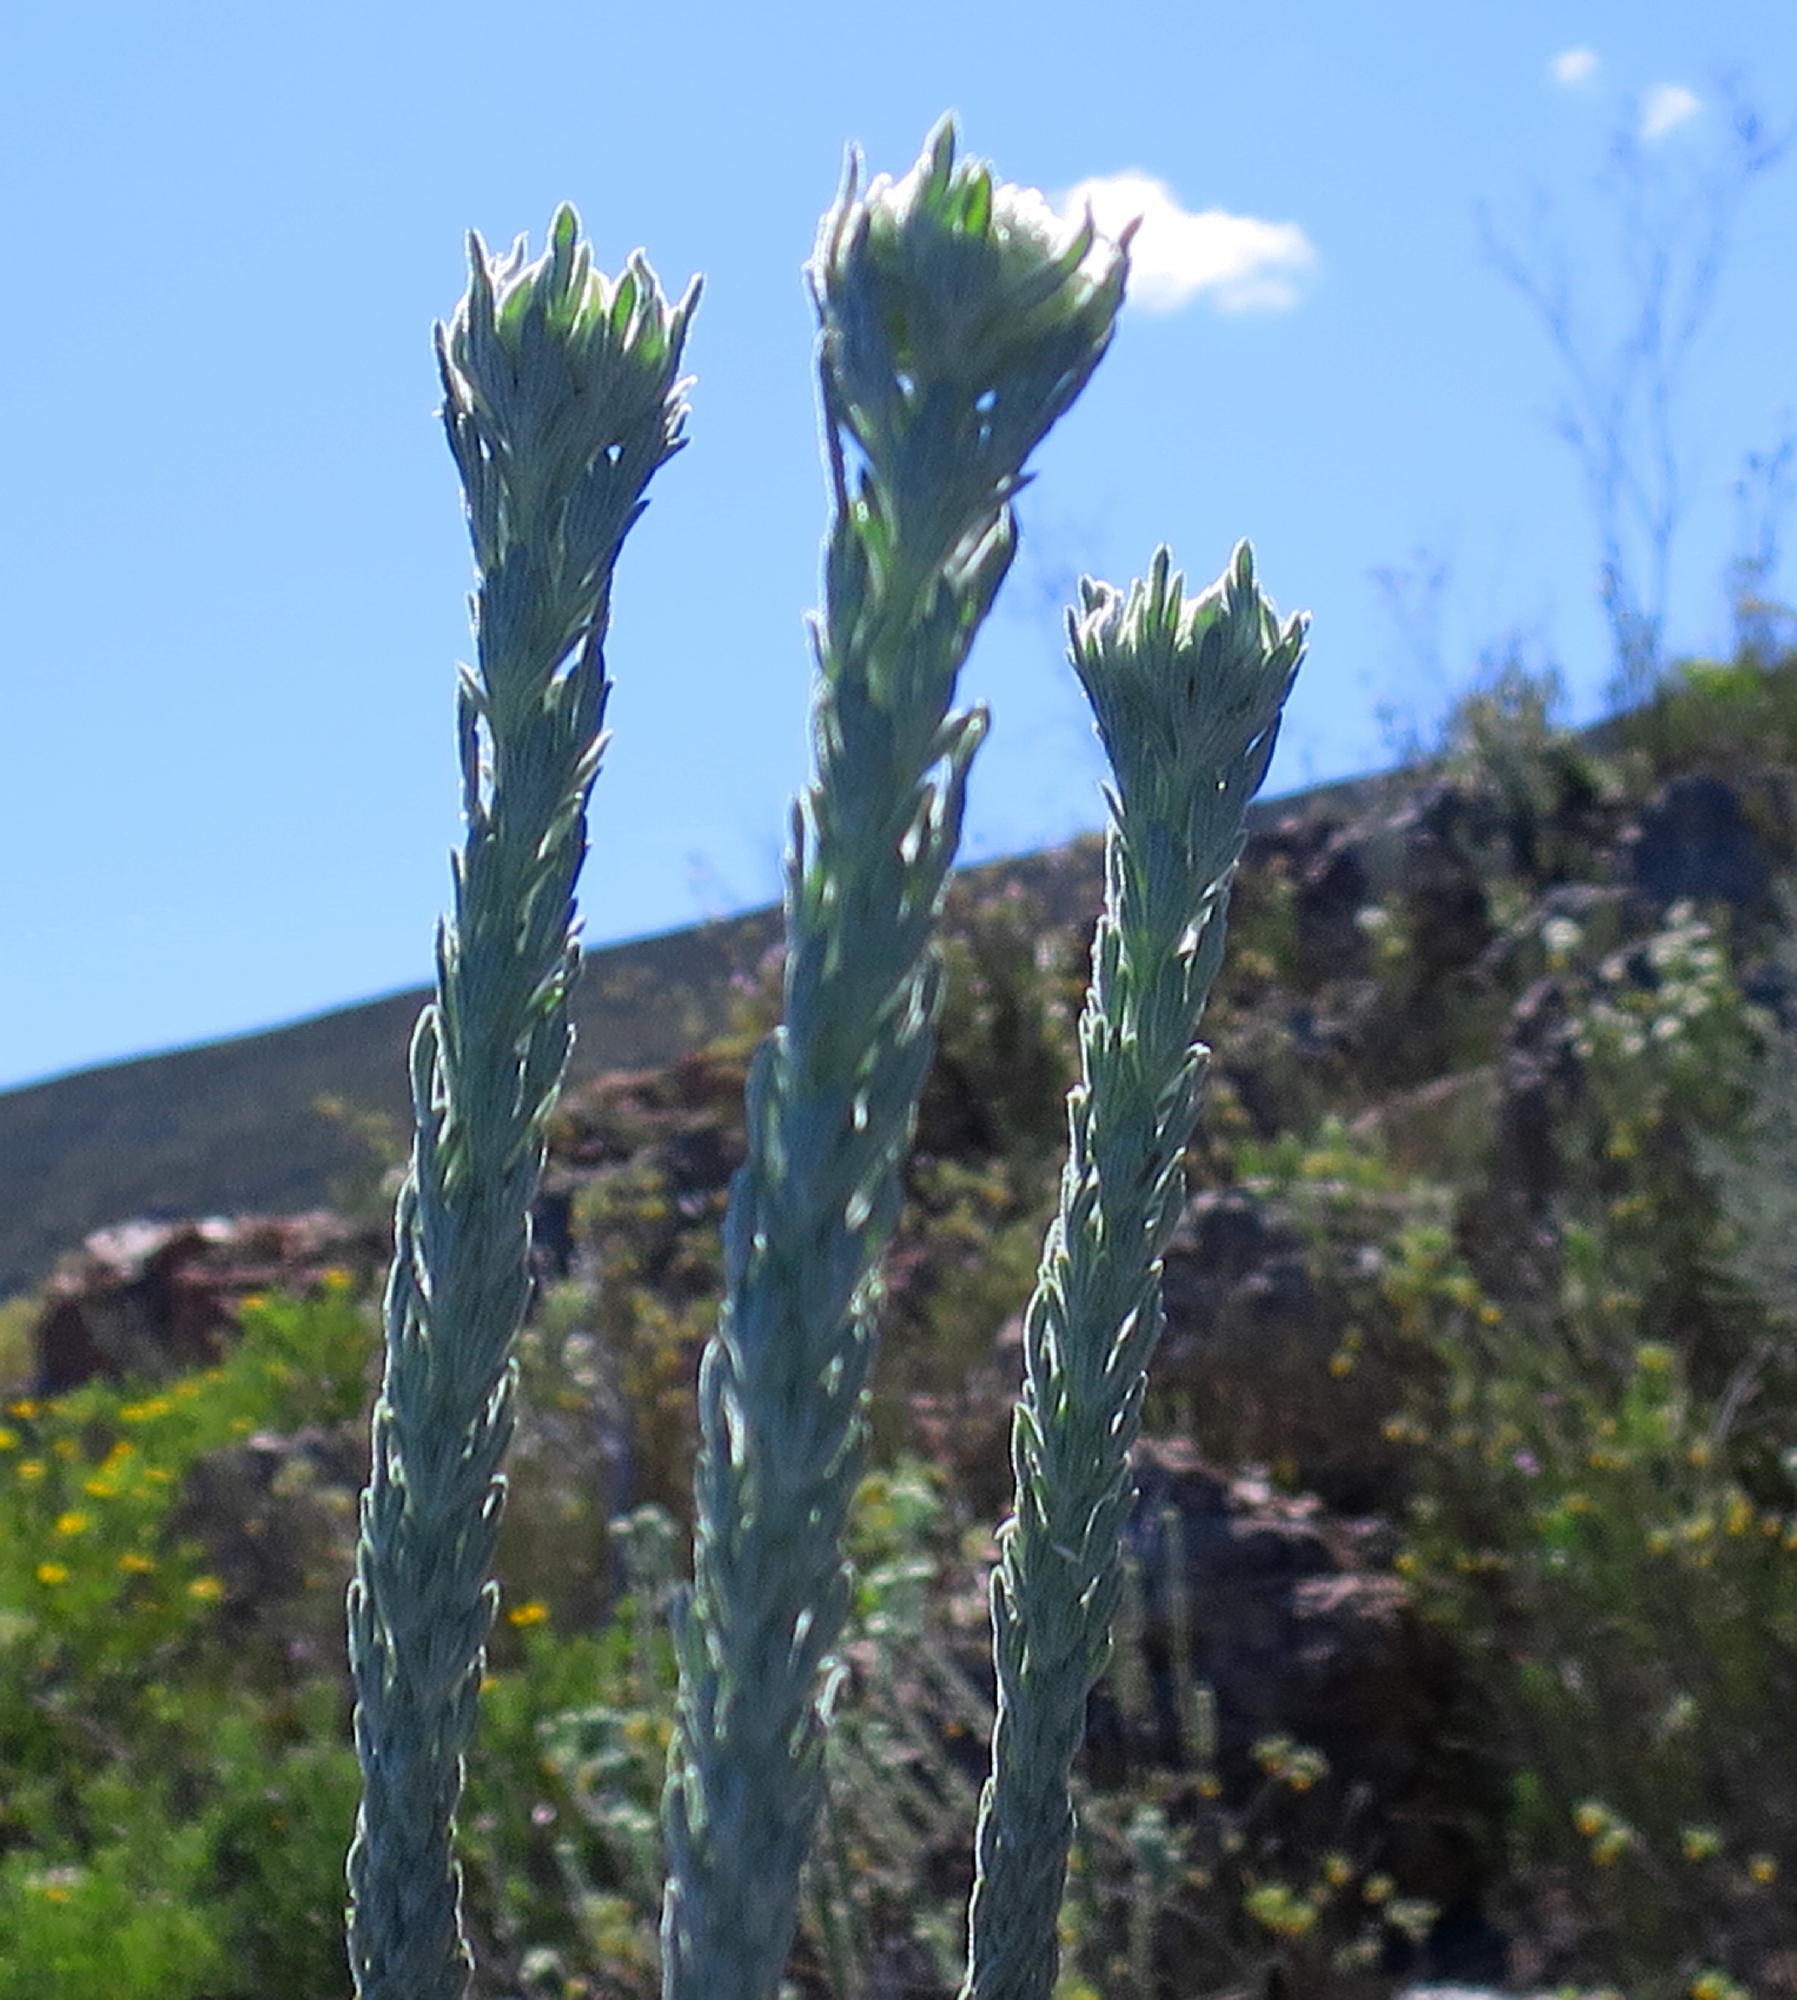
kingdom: Plantae
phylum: Tracheophyta
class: Magnoliopsida
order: Asterales
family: Asteraceae
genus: Athanasia
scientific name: Athanasia pinnata
